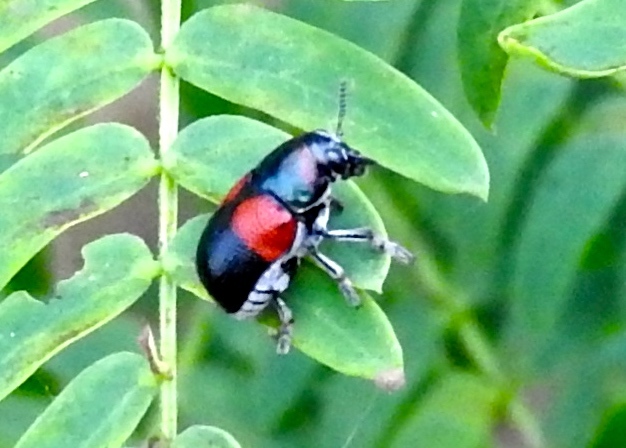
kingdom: Animalia
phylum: Arthropoda
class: Insecta
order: Coleoptera
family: Chrysomelidae
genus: Megalostomis
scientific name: Megalostomis pyropyga
